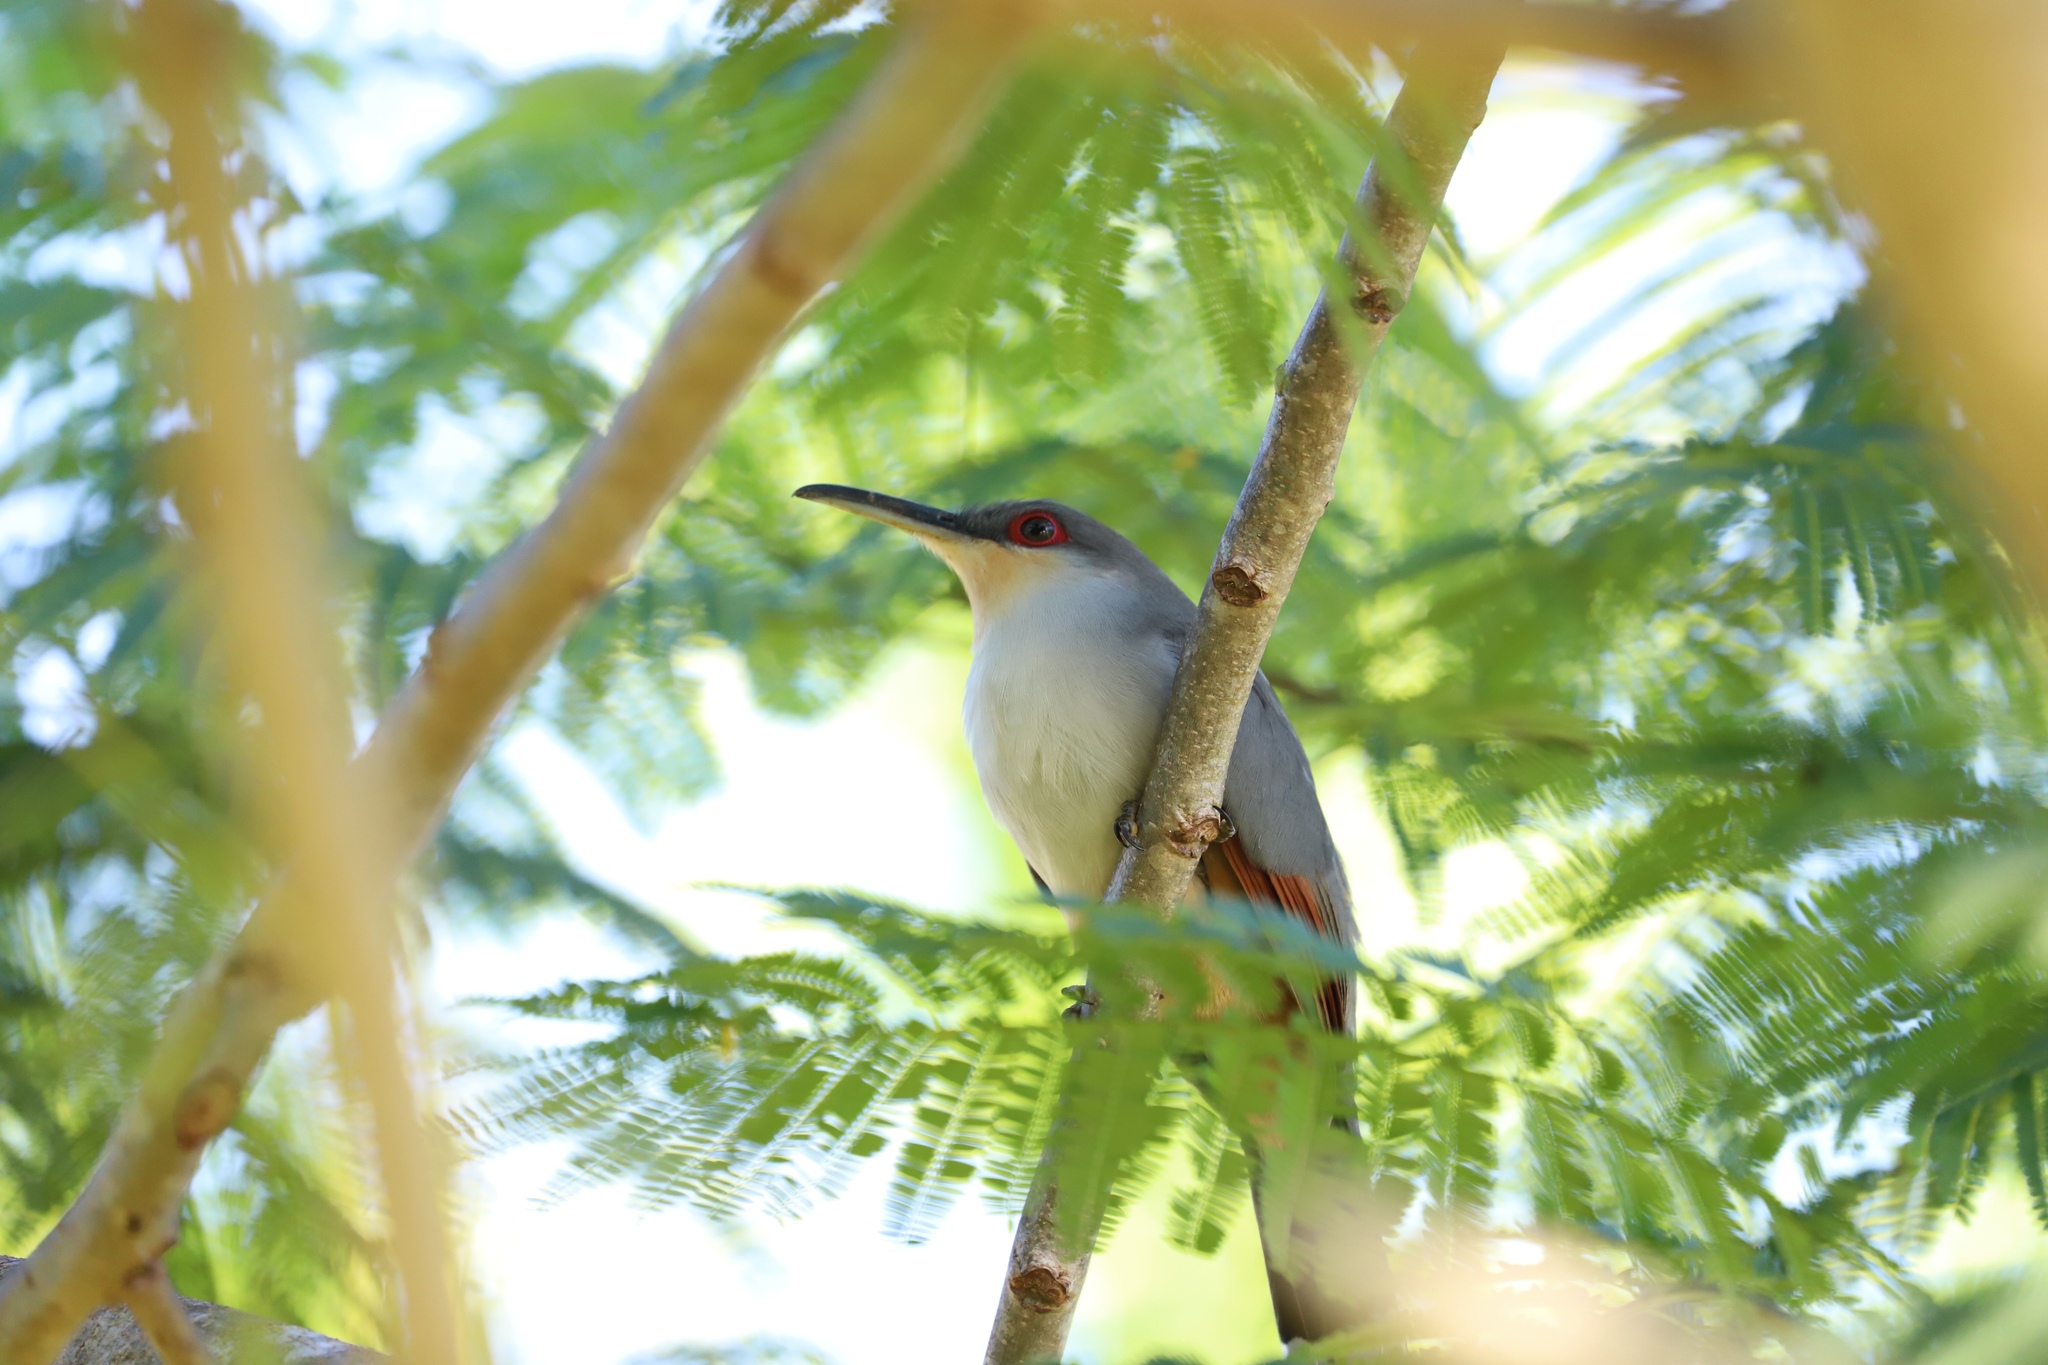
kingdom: Animalia
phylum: Chordata
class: Aves
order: Cuculiformes
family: Cuculidae
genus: Saurothera
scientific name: Saurothera longirostris
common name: Hispaniolan lizard-cuckoo
